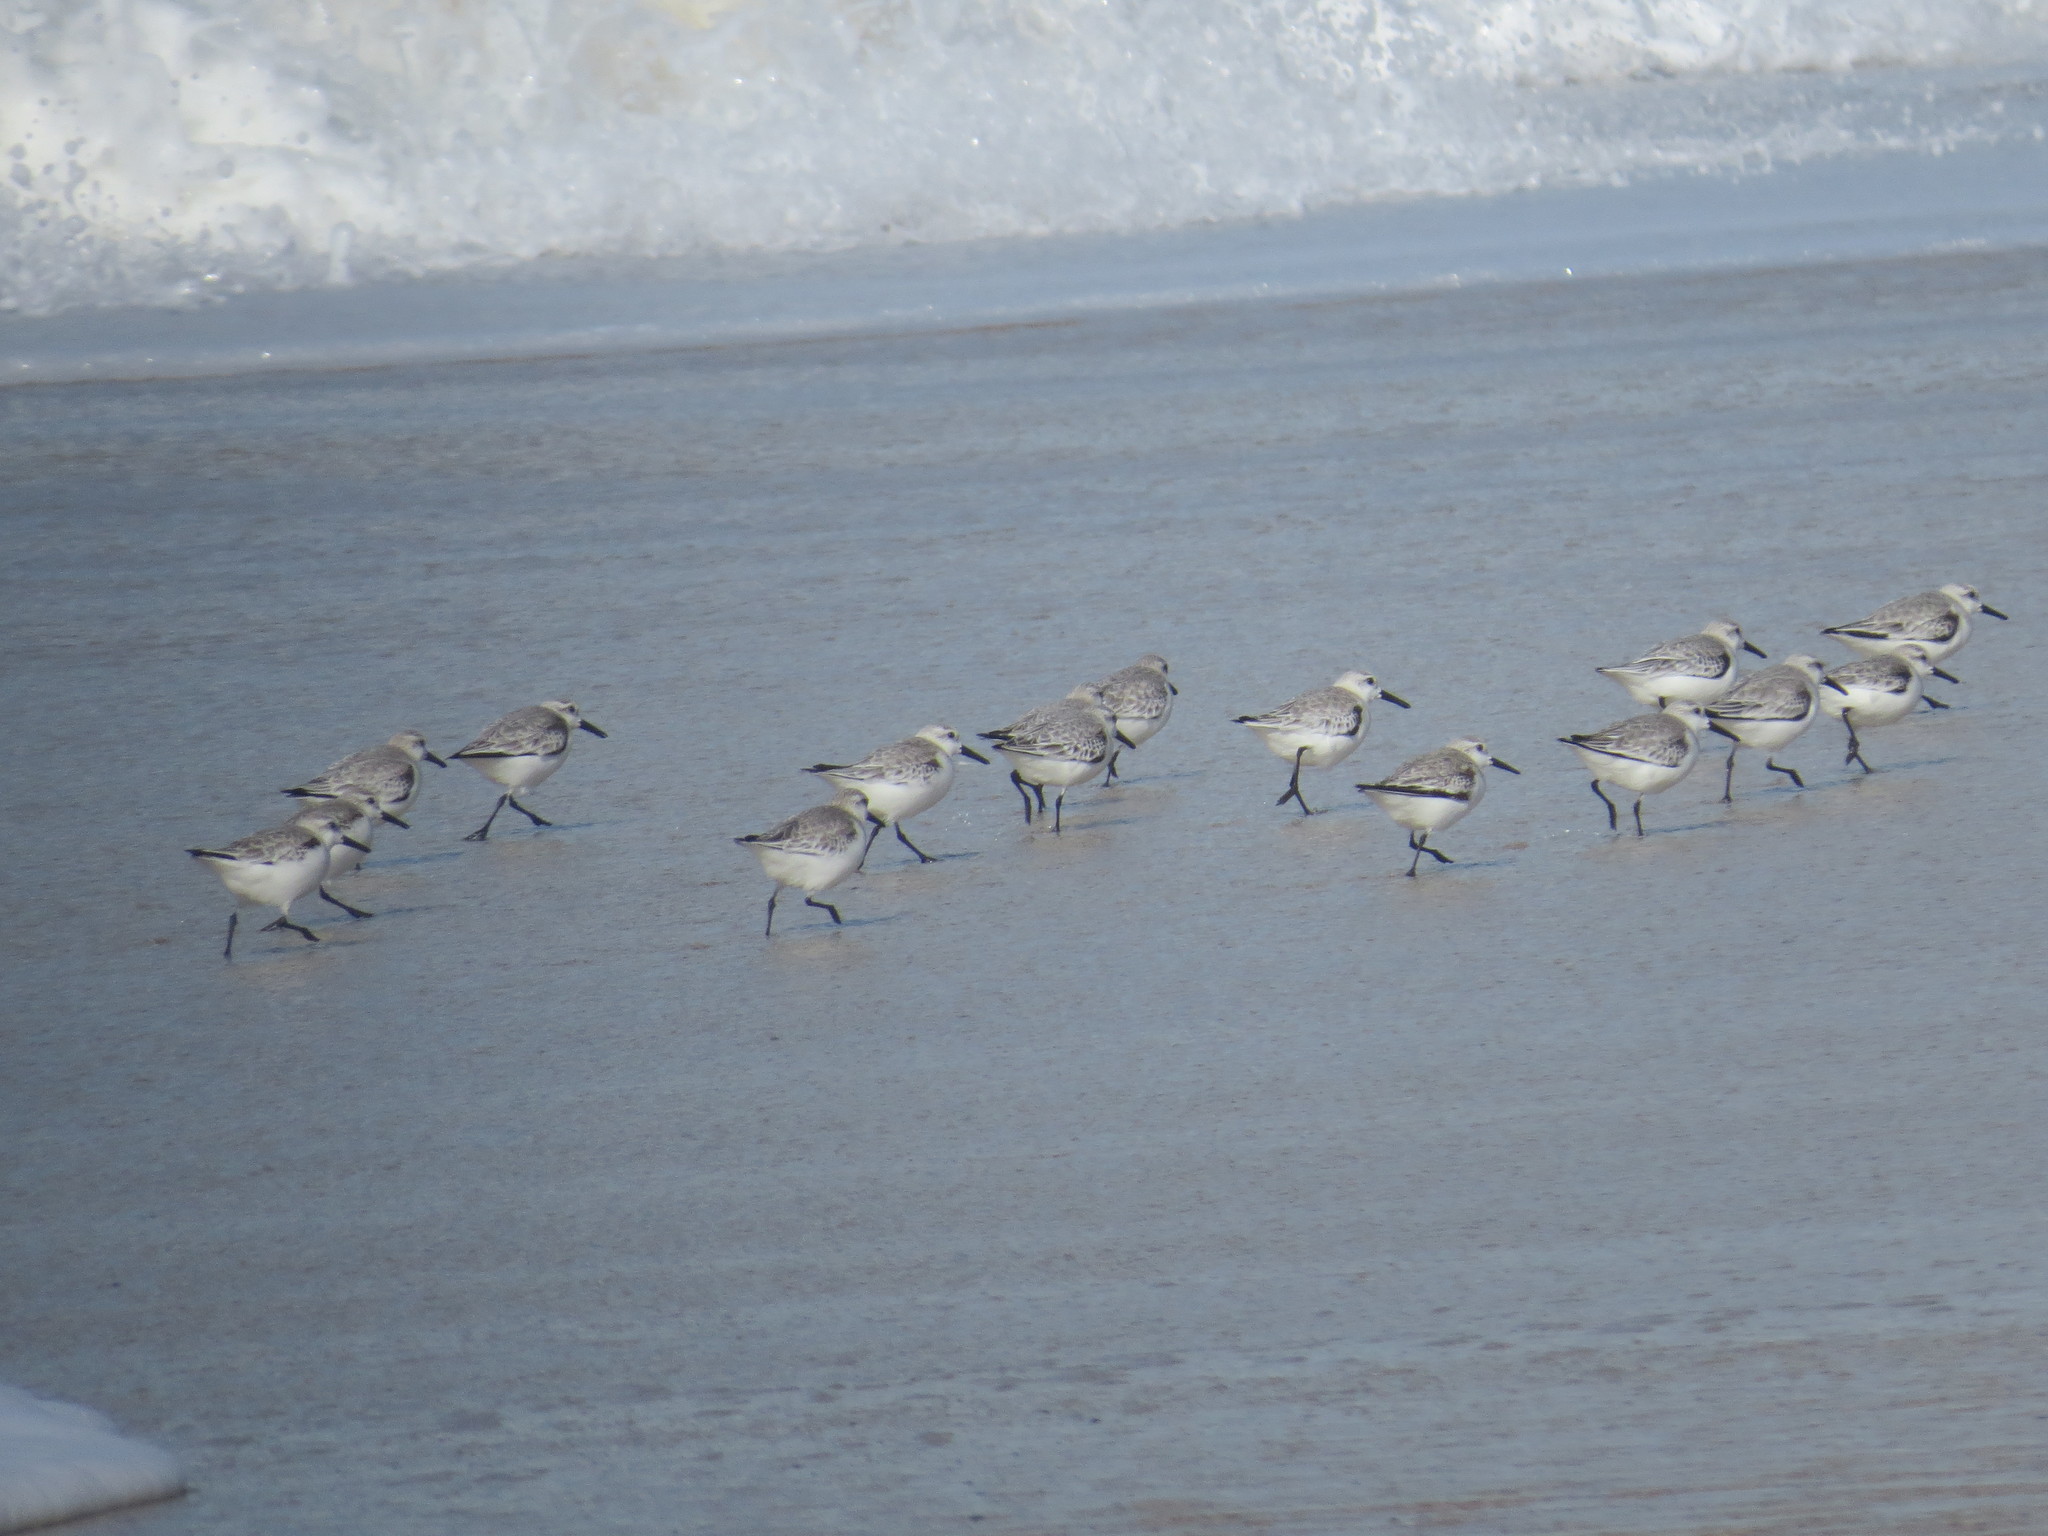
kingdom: Animalia
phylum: Chordata
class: Aves
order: Charadriiformes
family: Scolopacidae
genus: Calidris
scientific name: Calidris alba
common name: Sanderling
